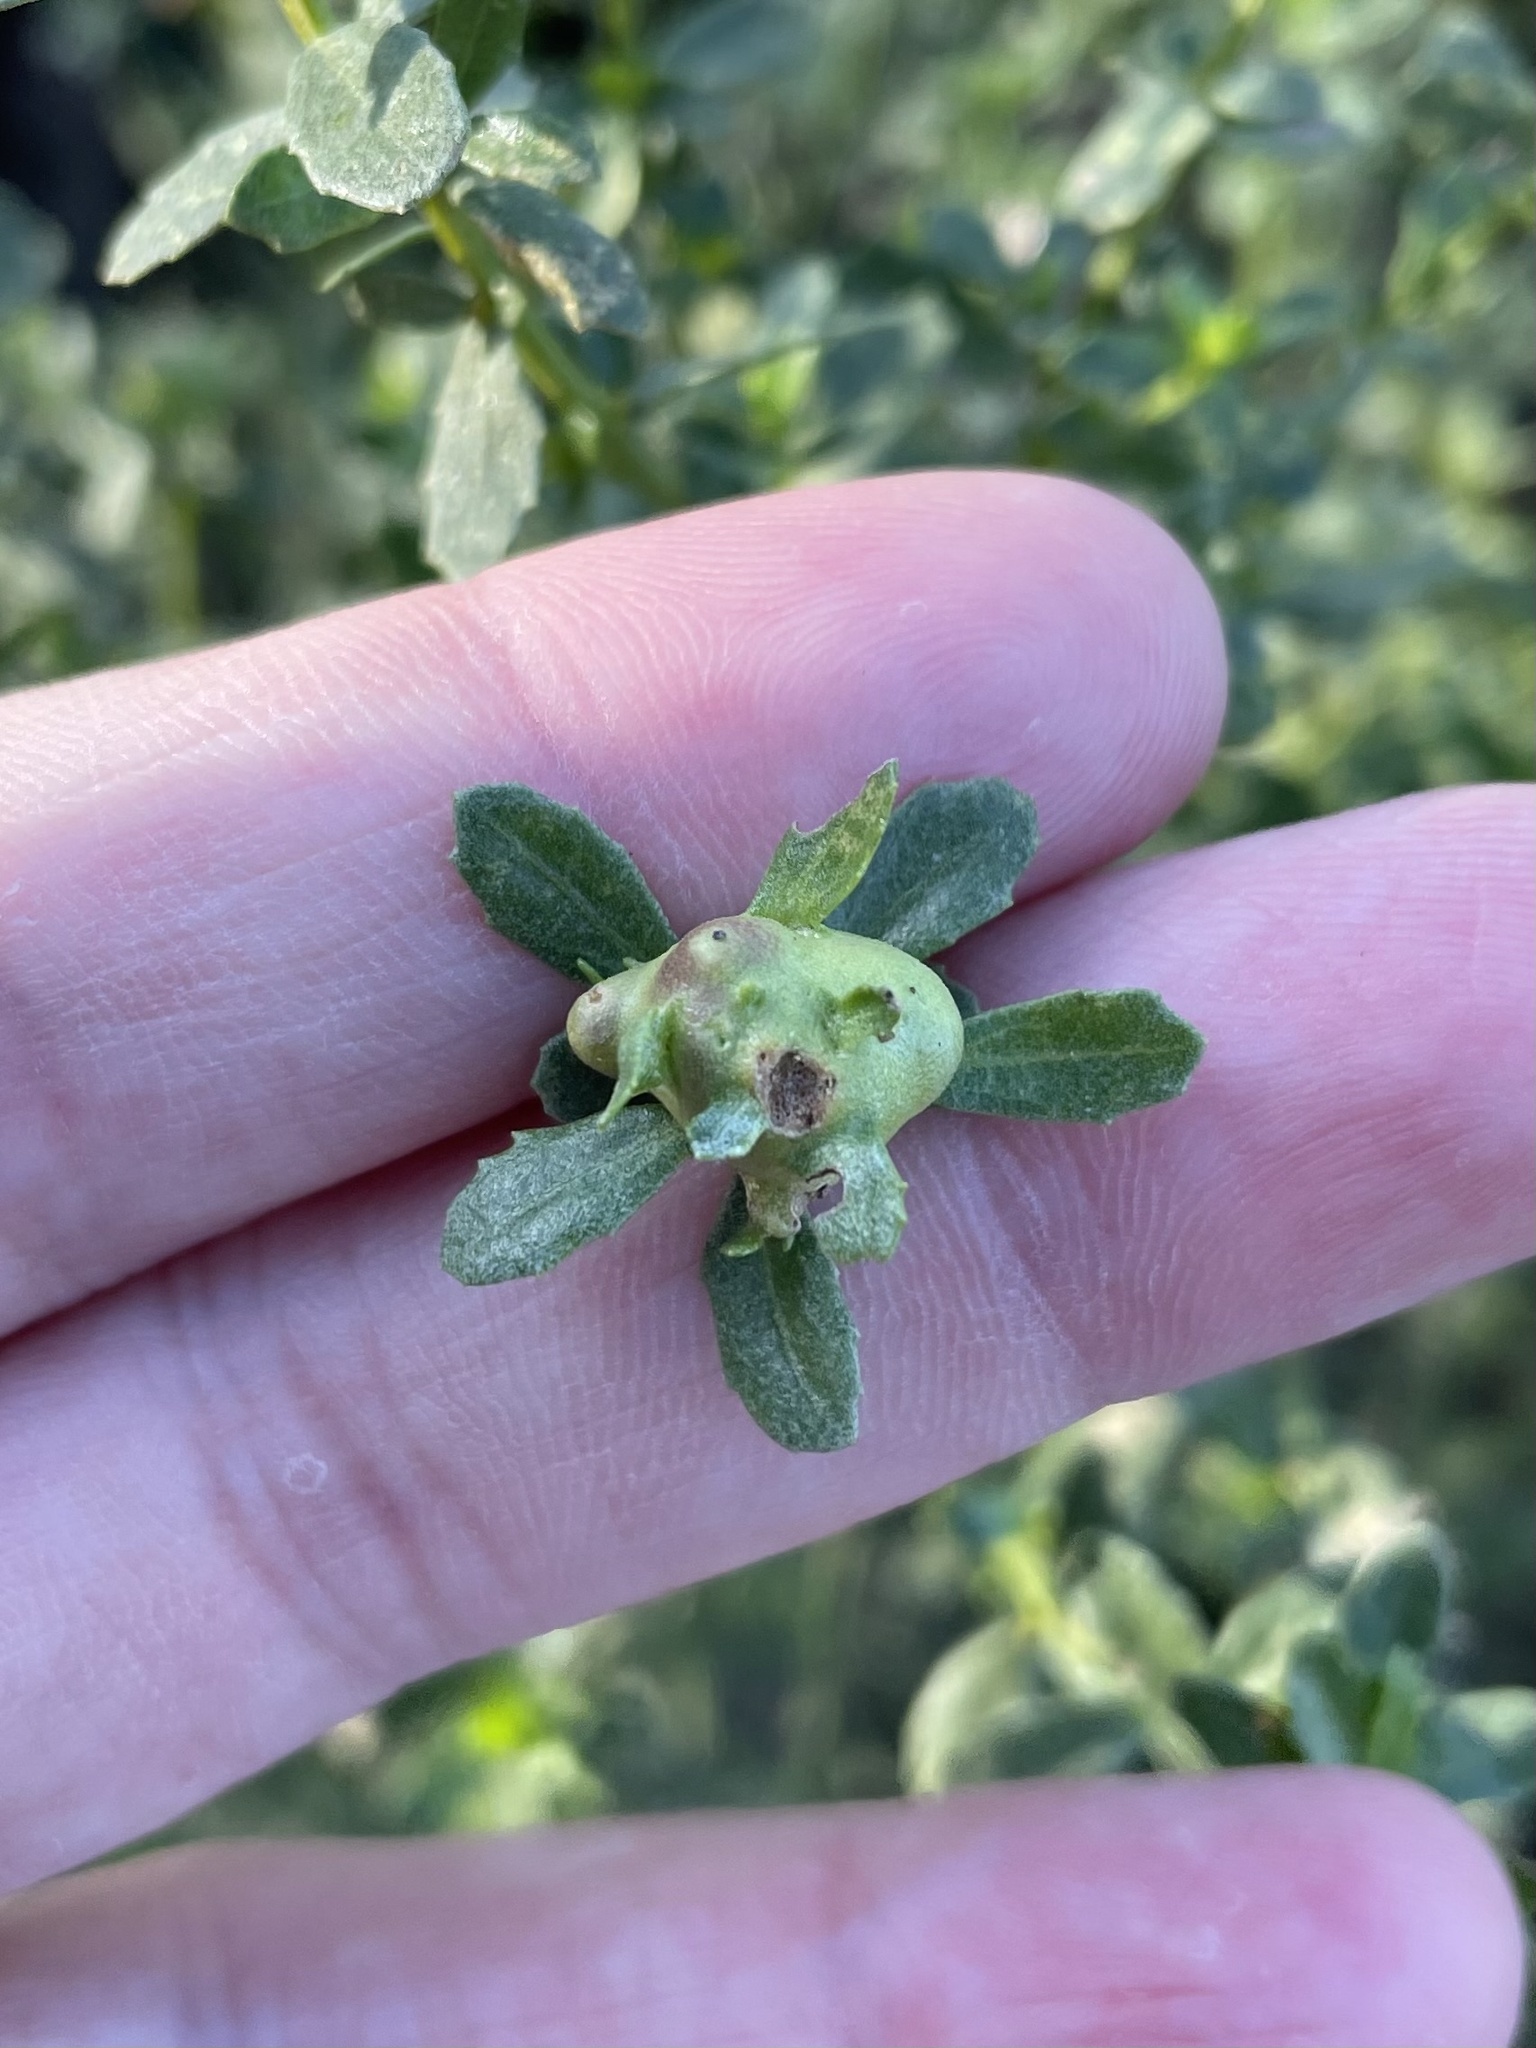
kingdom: Animalia
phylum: Arthropoda
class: Insecta
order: Diptera
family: Cecidomyiidae
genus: Rhopalomyia
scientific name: Rhopalomyia californica
